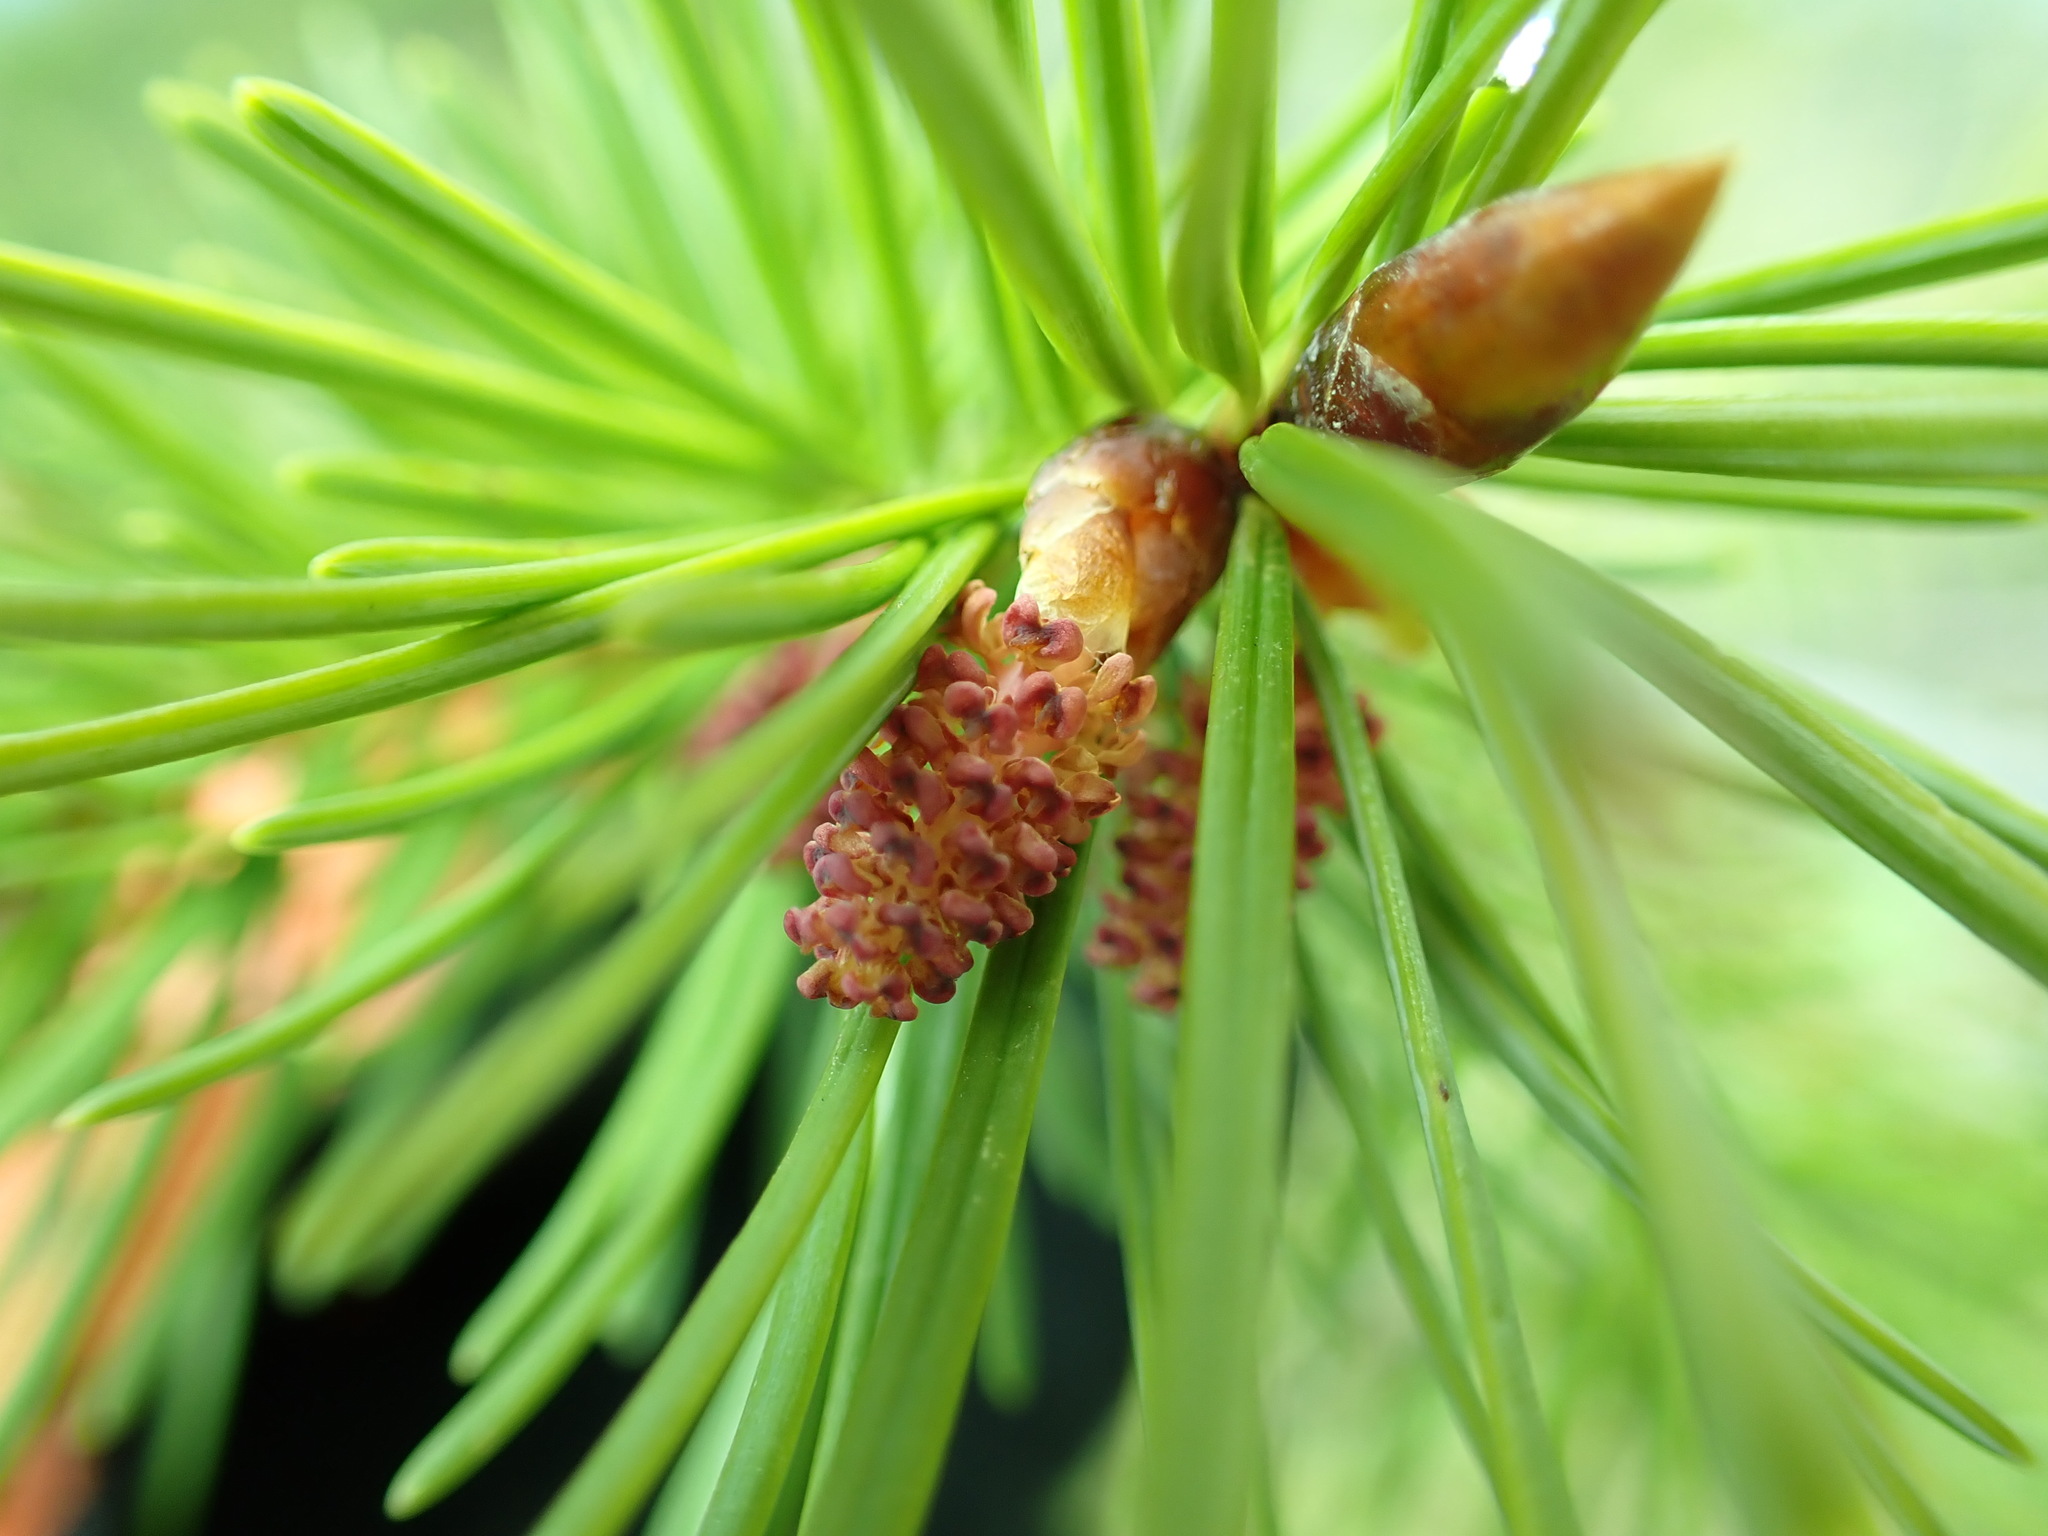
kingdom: Plantae
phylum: Tracheophyta
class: Pinopsida
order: Pinales
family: Pinaceae
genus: Pseudotsuga
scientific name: Pseudotsuga menziesii
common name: Douglas fir
